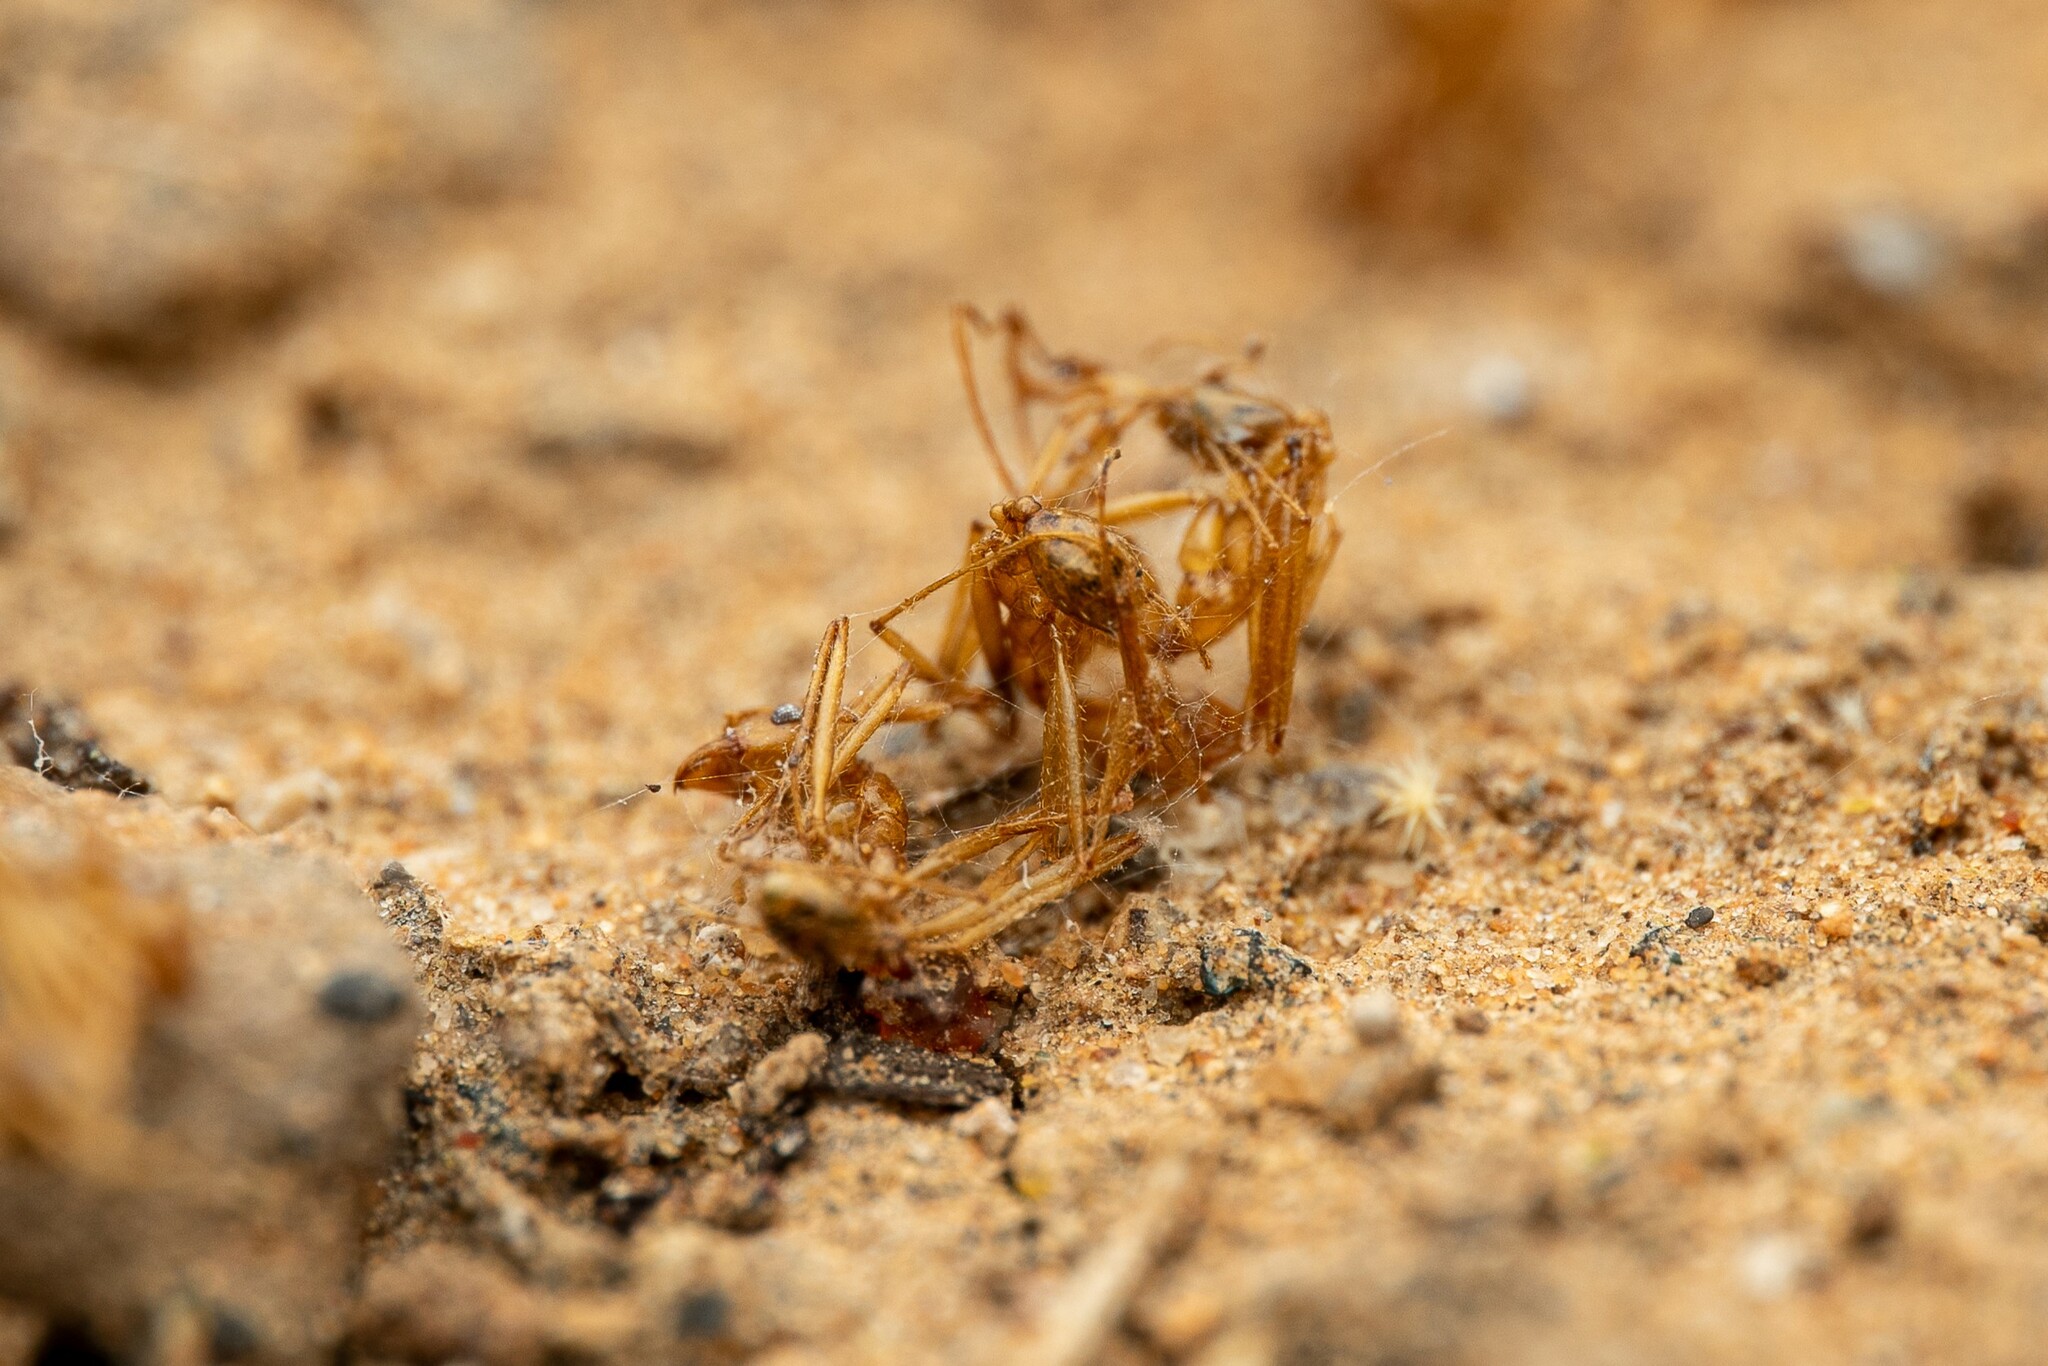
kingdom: Animalia
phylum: Arthropoda
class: Insecta
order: Hymenoptera
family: Formicidae
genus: Pheidole
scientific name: Pheidole vistana
